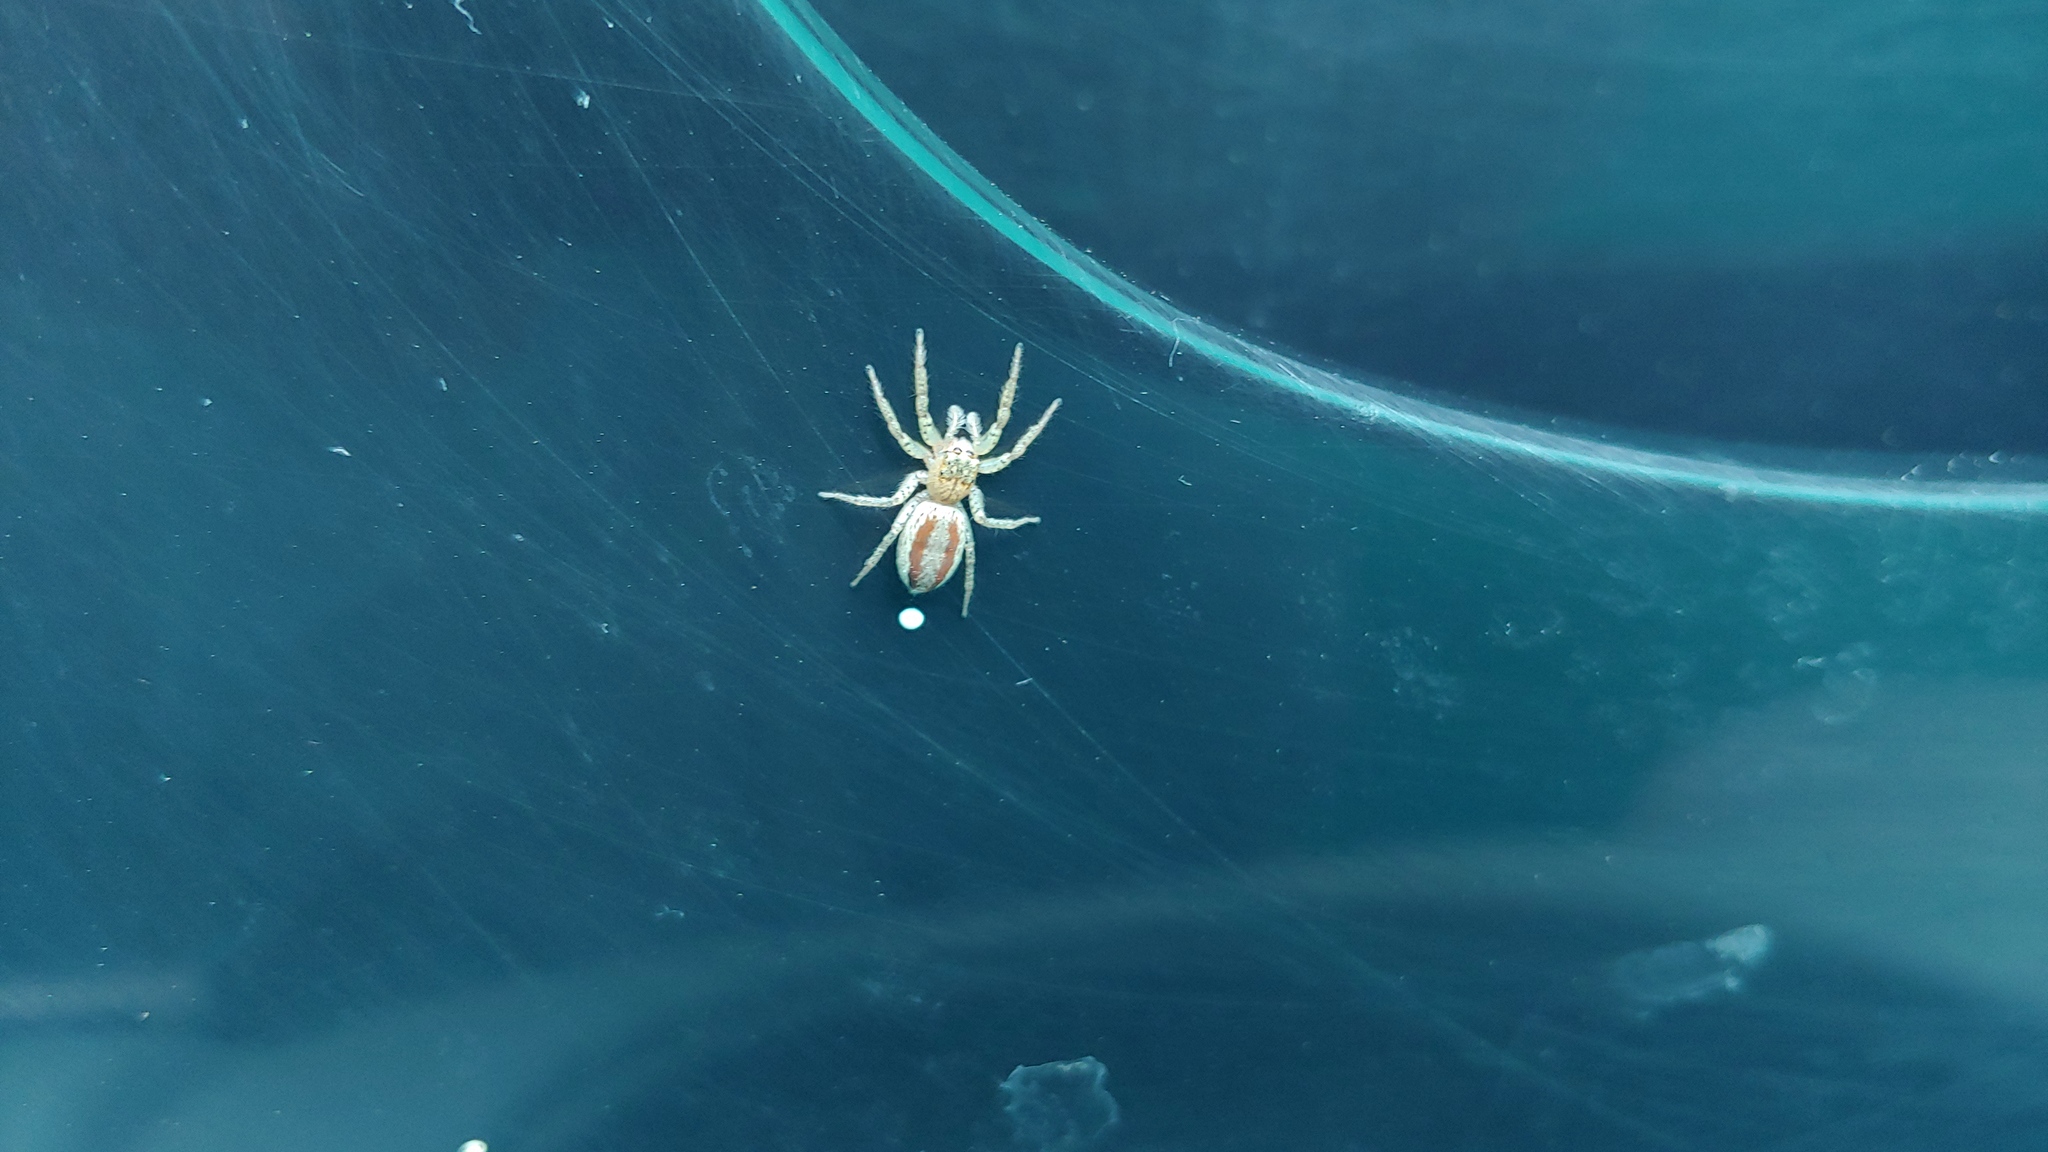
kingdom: Animalia
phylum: Arthropoda
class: Arachnida
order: Araneae
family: Salticidae
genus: Maevia
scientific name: Maevia inclemens
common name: Dimorphic jumper
